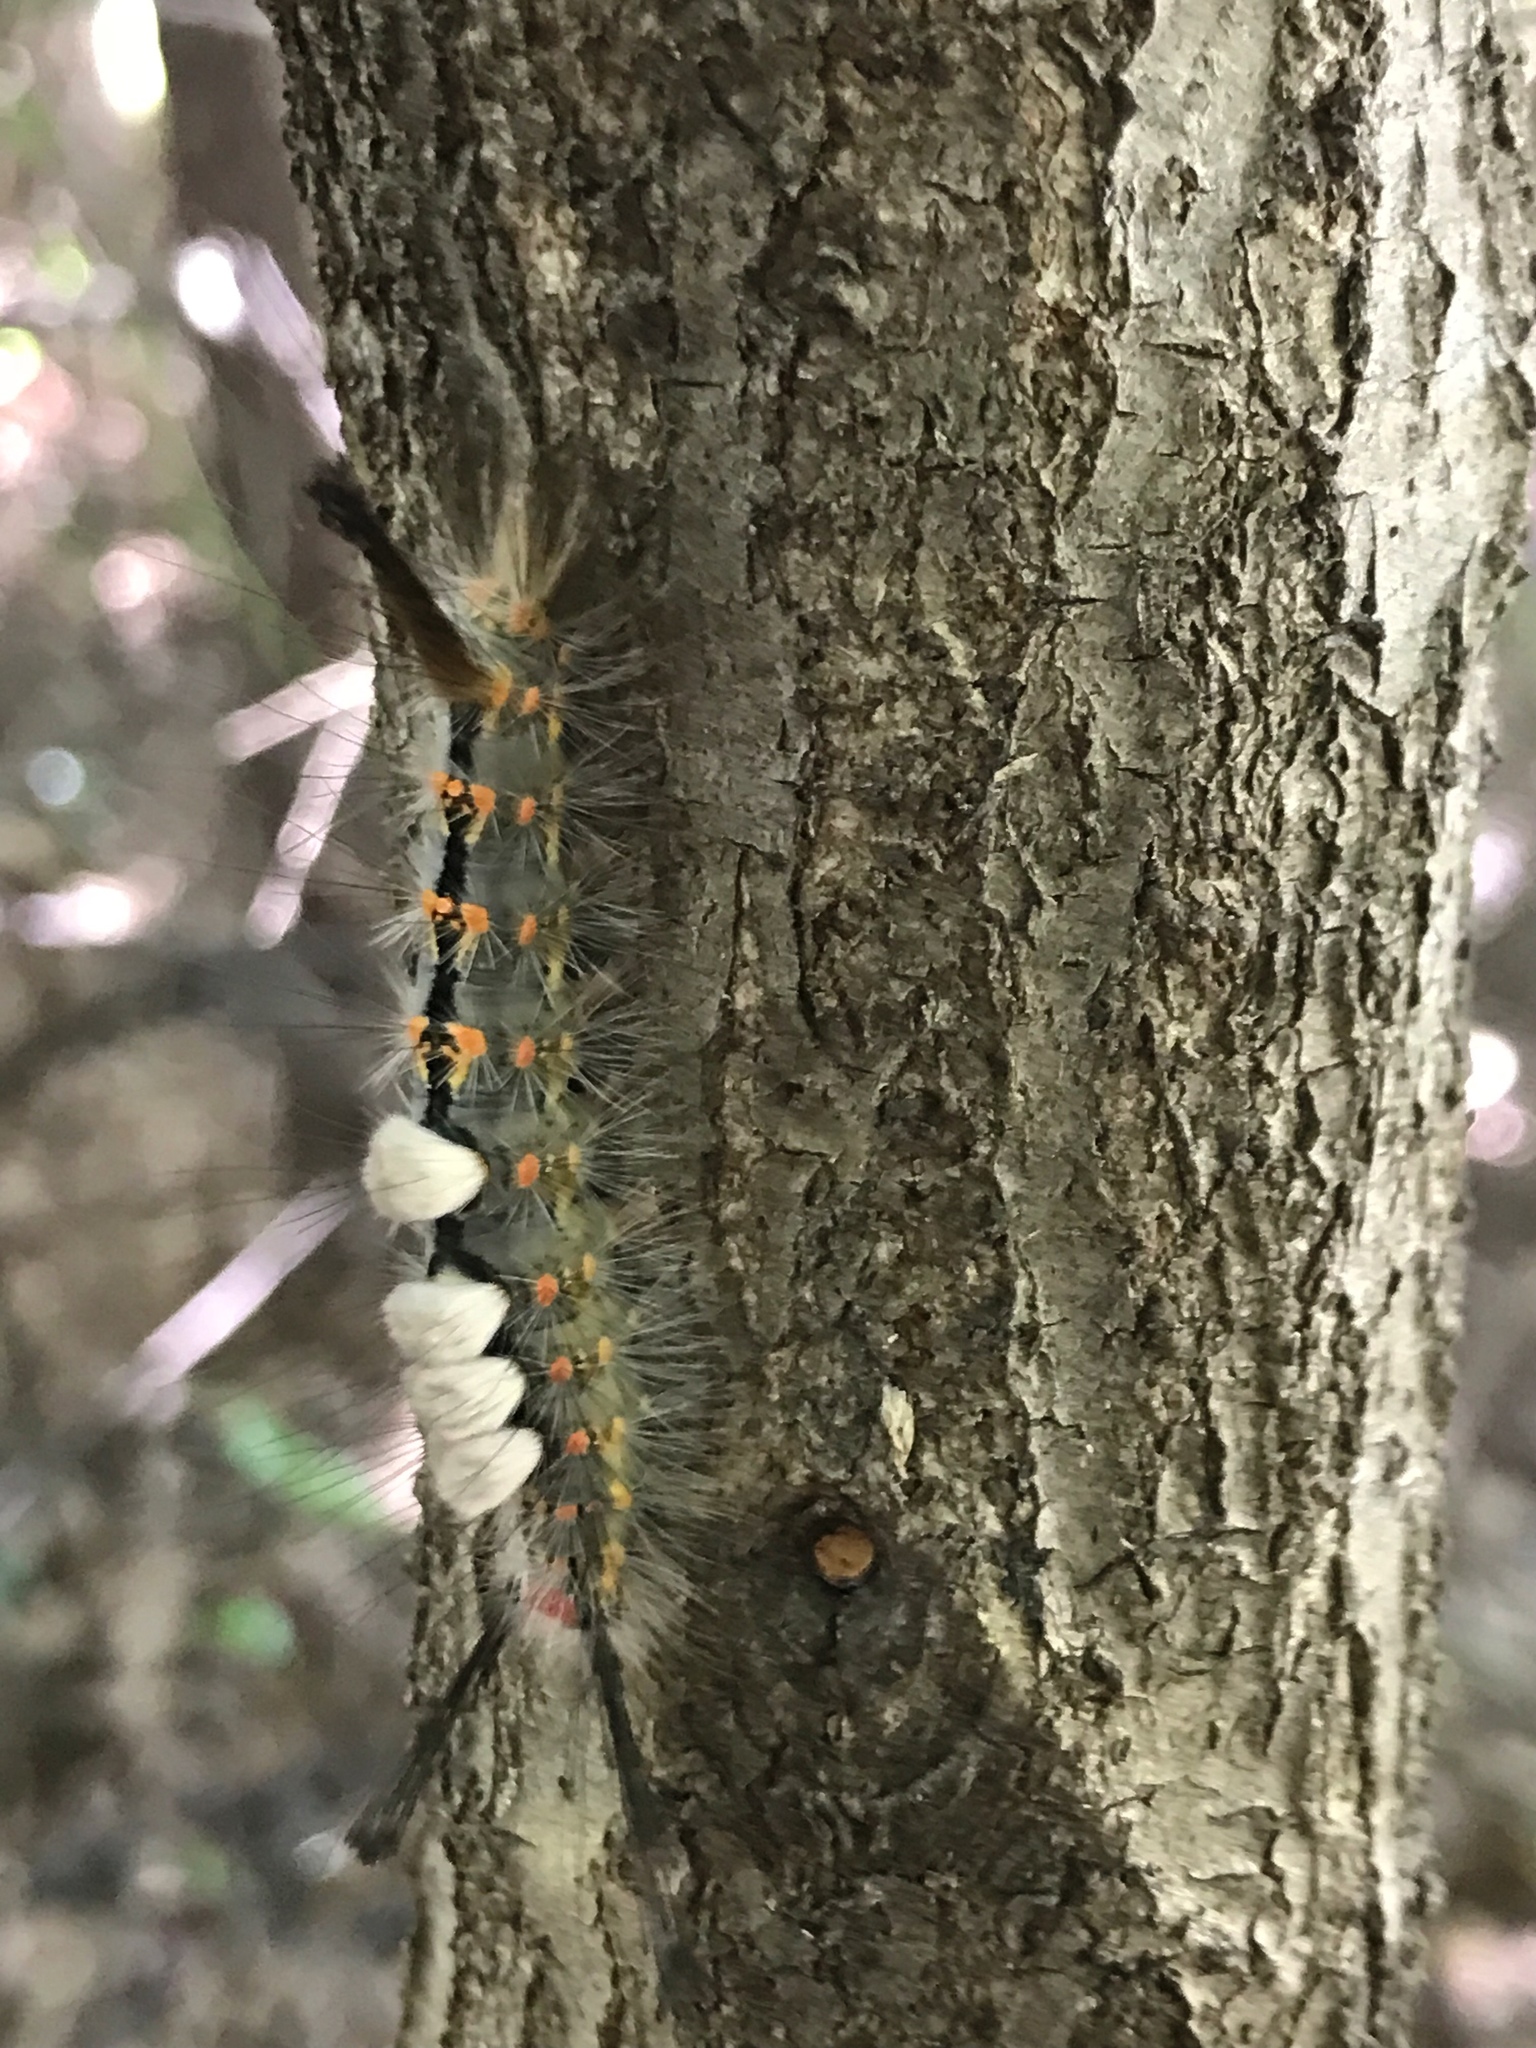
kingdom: Animalia
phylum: Arthropoda
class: Insecta
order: Lepidoptera
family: Erebidae
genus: Orgyia
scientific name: Orgyia detrita
